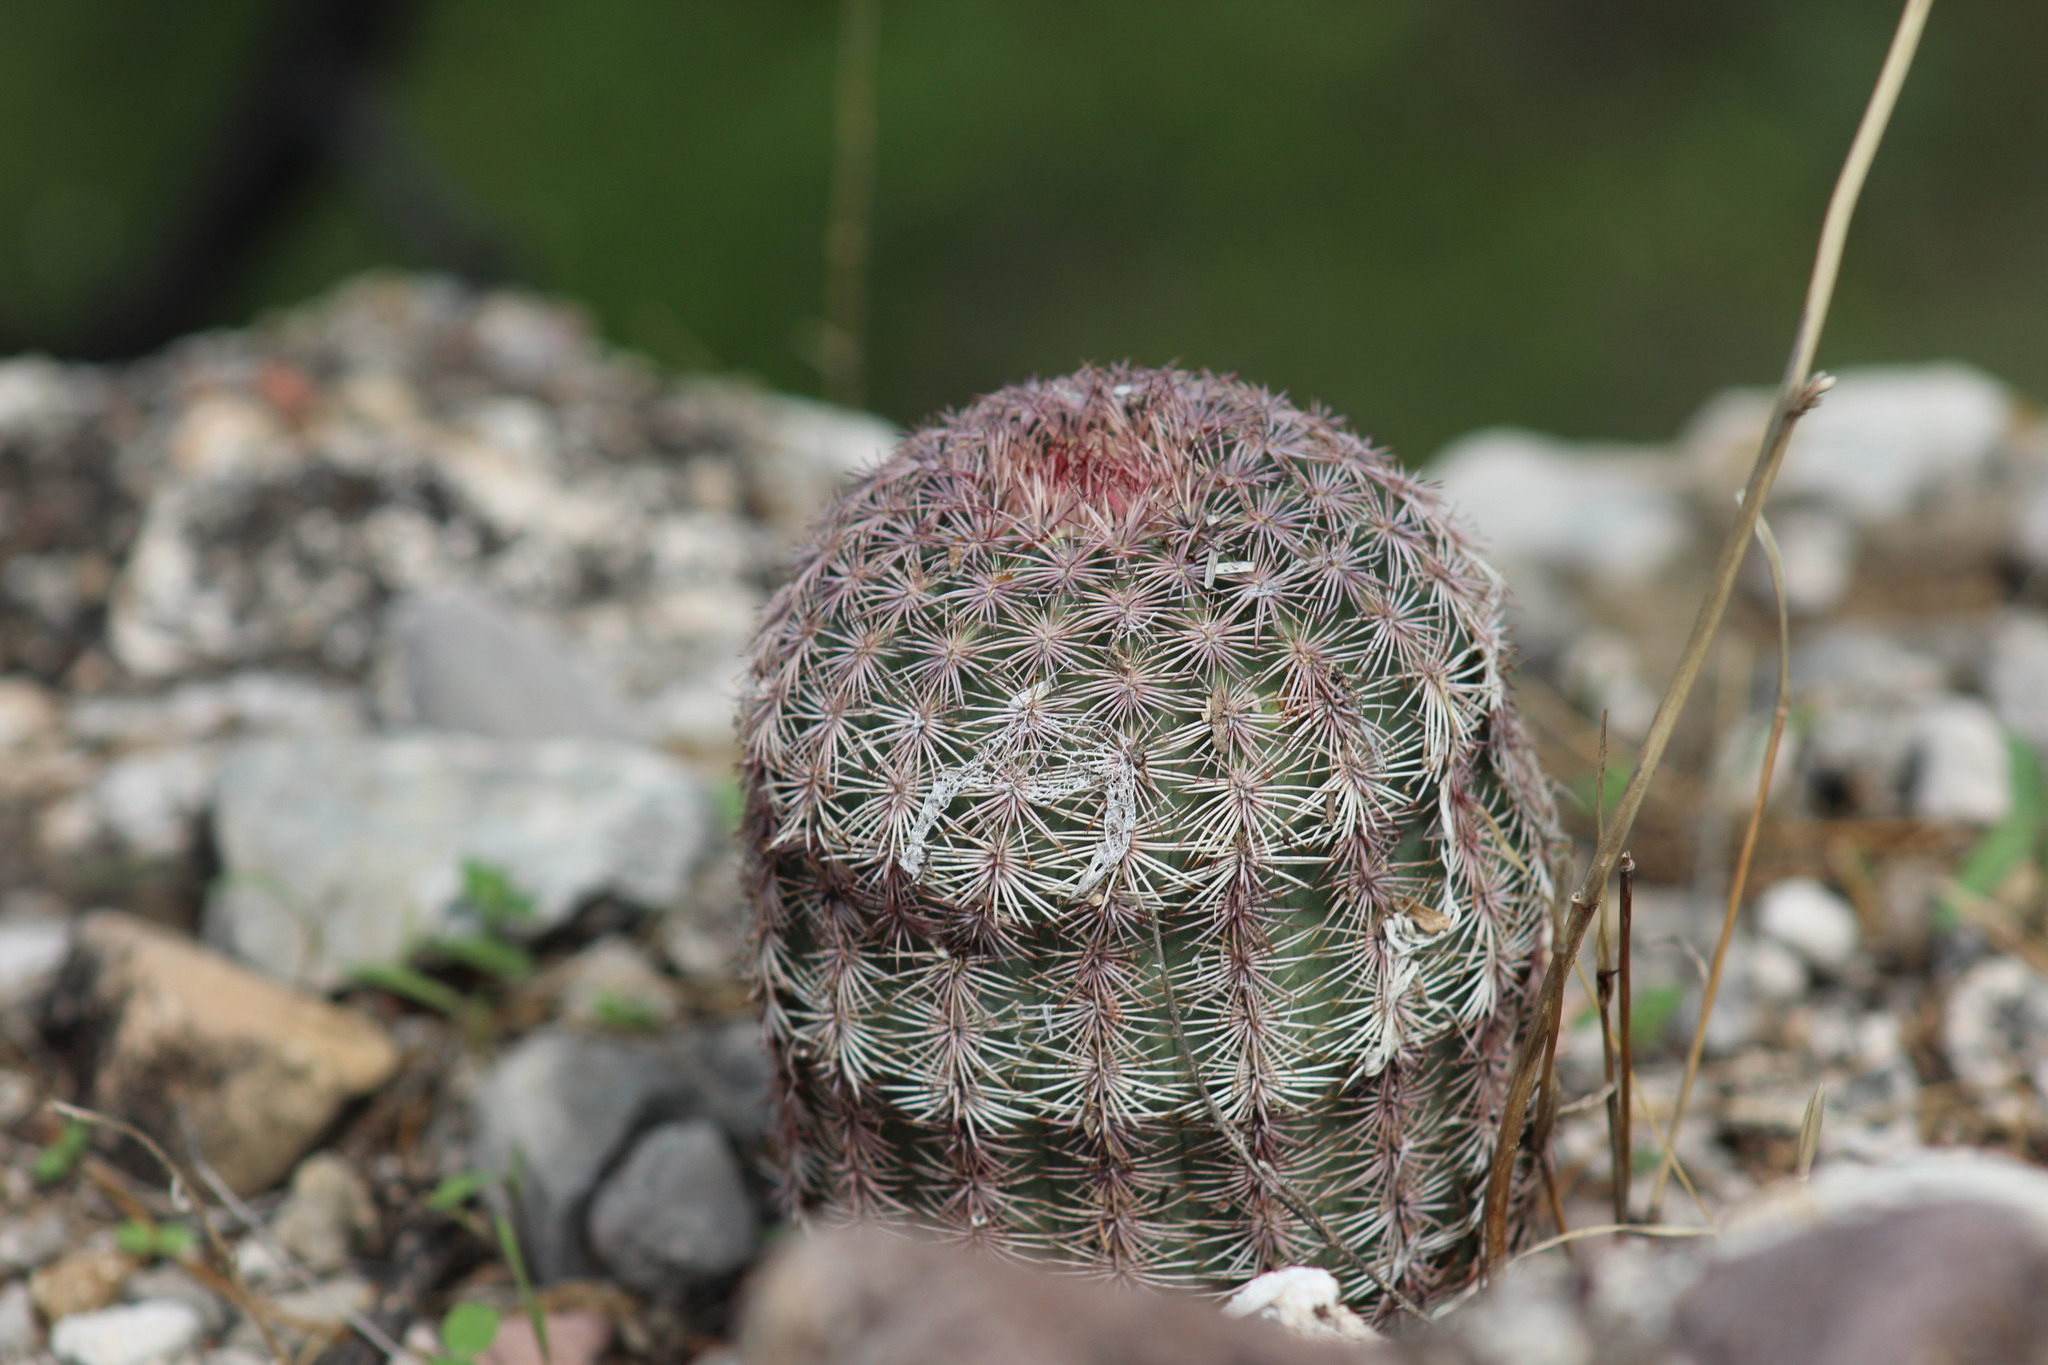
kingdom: Plantae
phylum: Tracheophyta
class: Magnoliopsida
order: Caryophyllales
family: Cactaceae
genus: Echinocereus
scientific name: Echinocereus pectinatus
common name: Rainbow cactus
